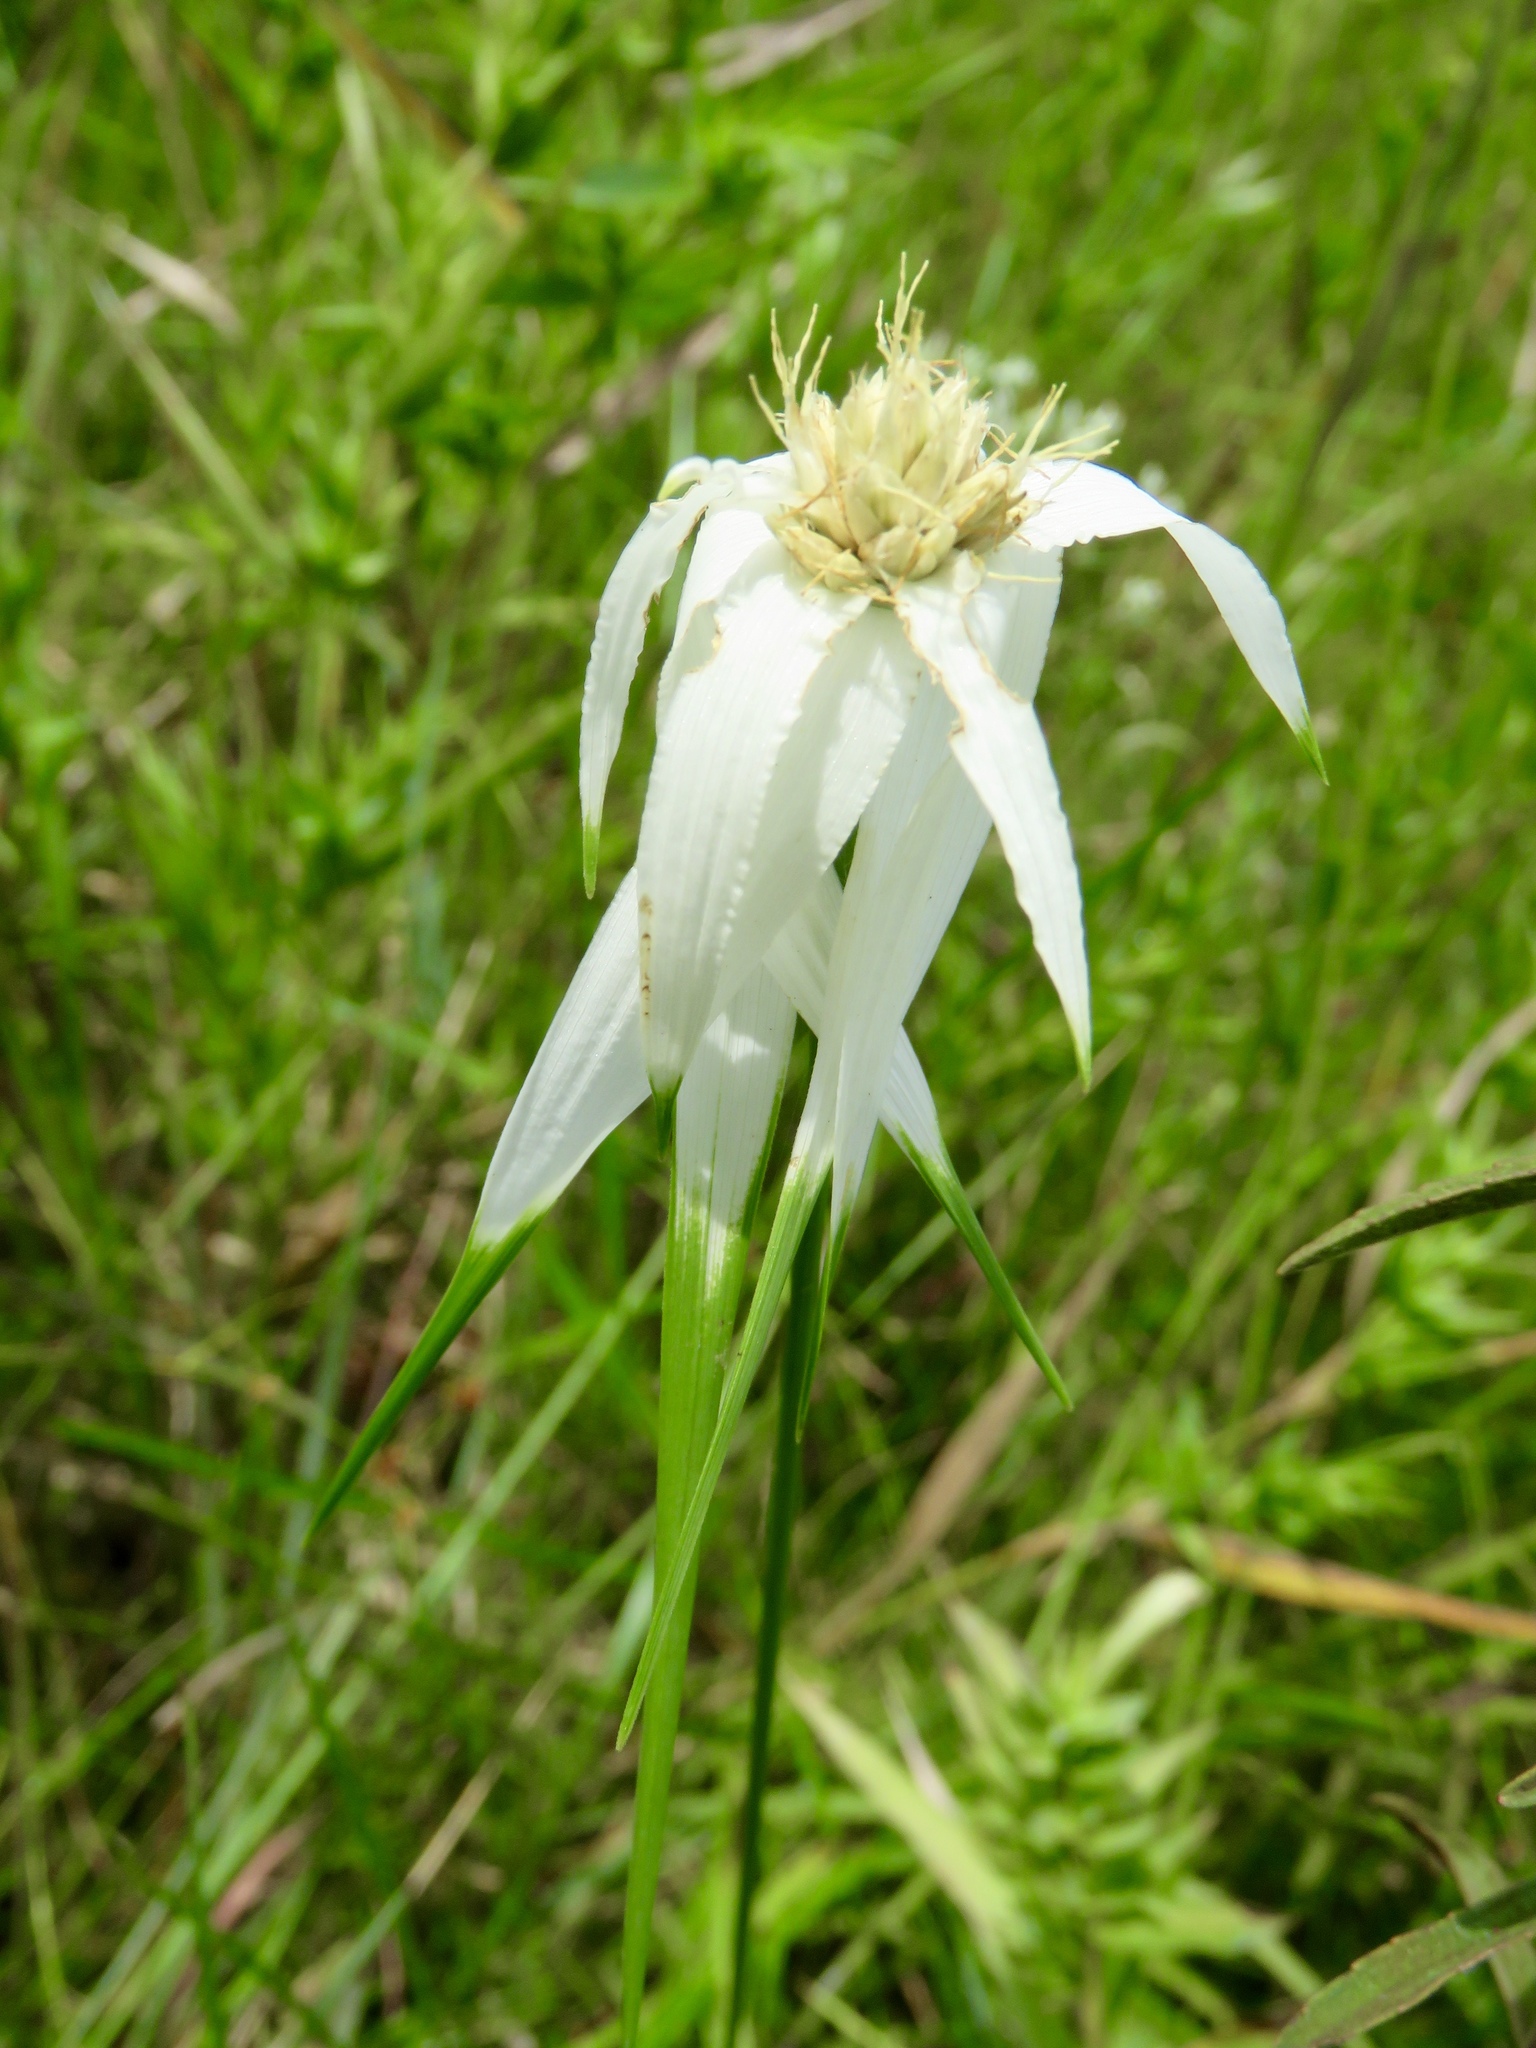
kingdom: Plantae
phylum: Tracheophyta
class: Liliopsida
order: Poales
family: Cyperaceae
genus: Rhynchospora
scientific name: Rhynchospora latifolia
